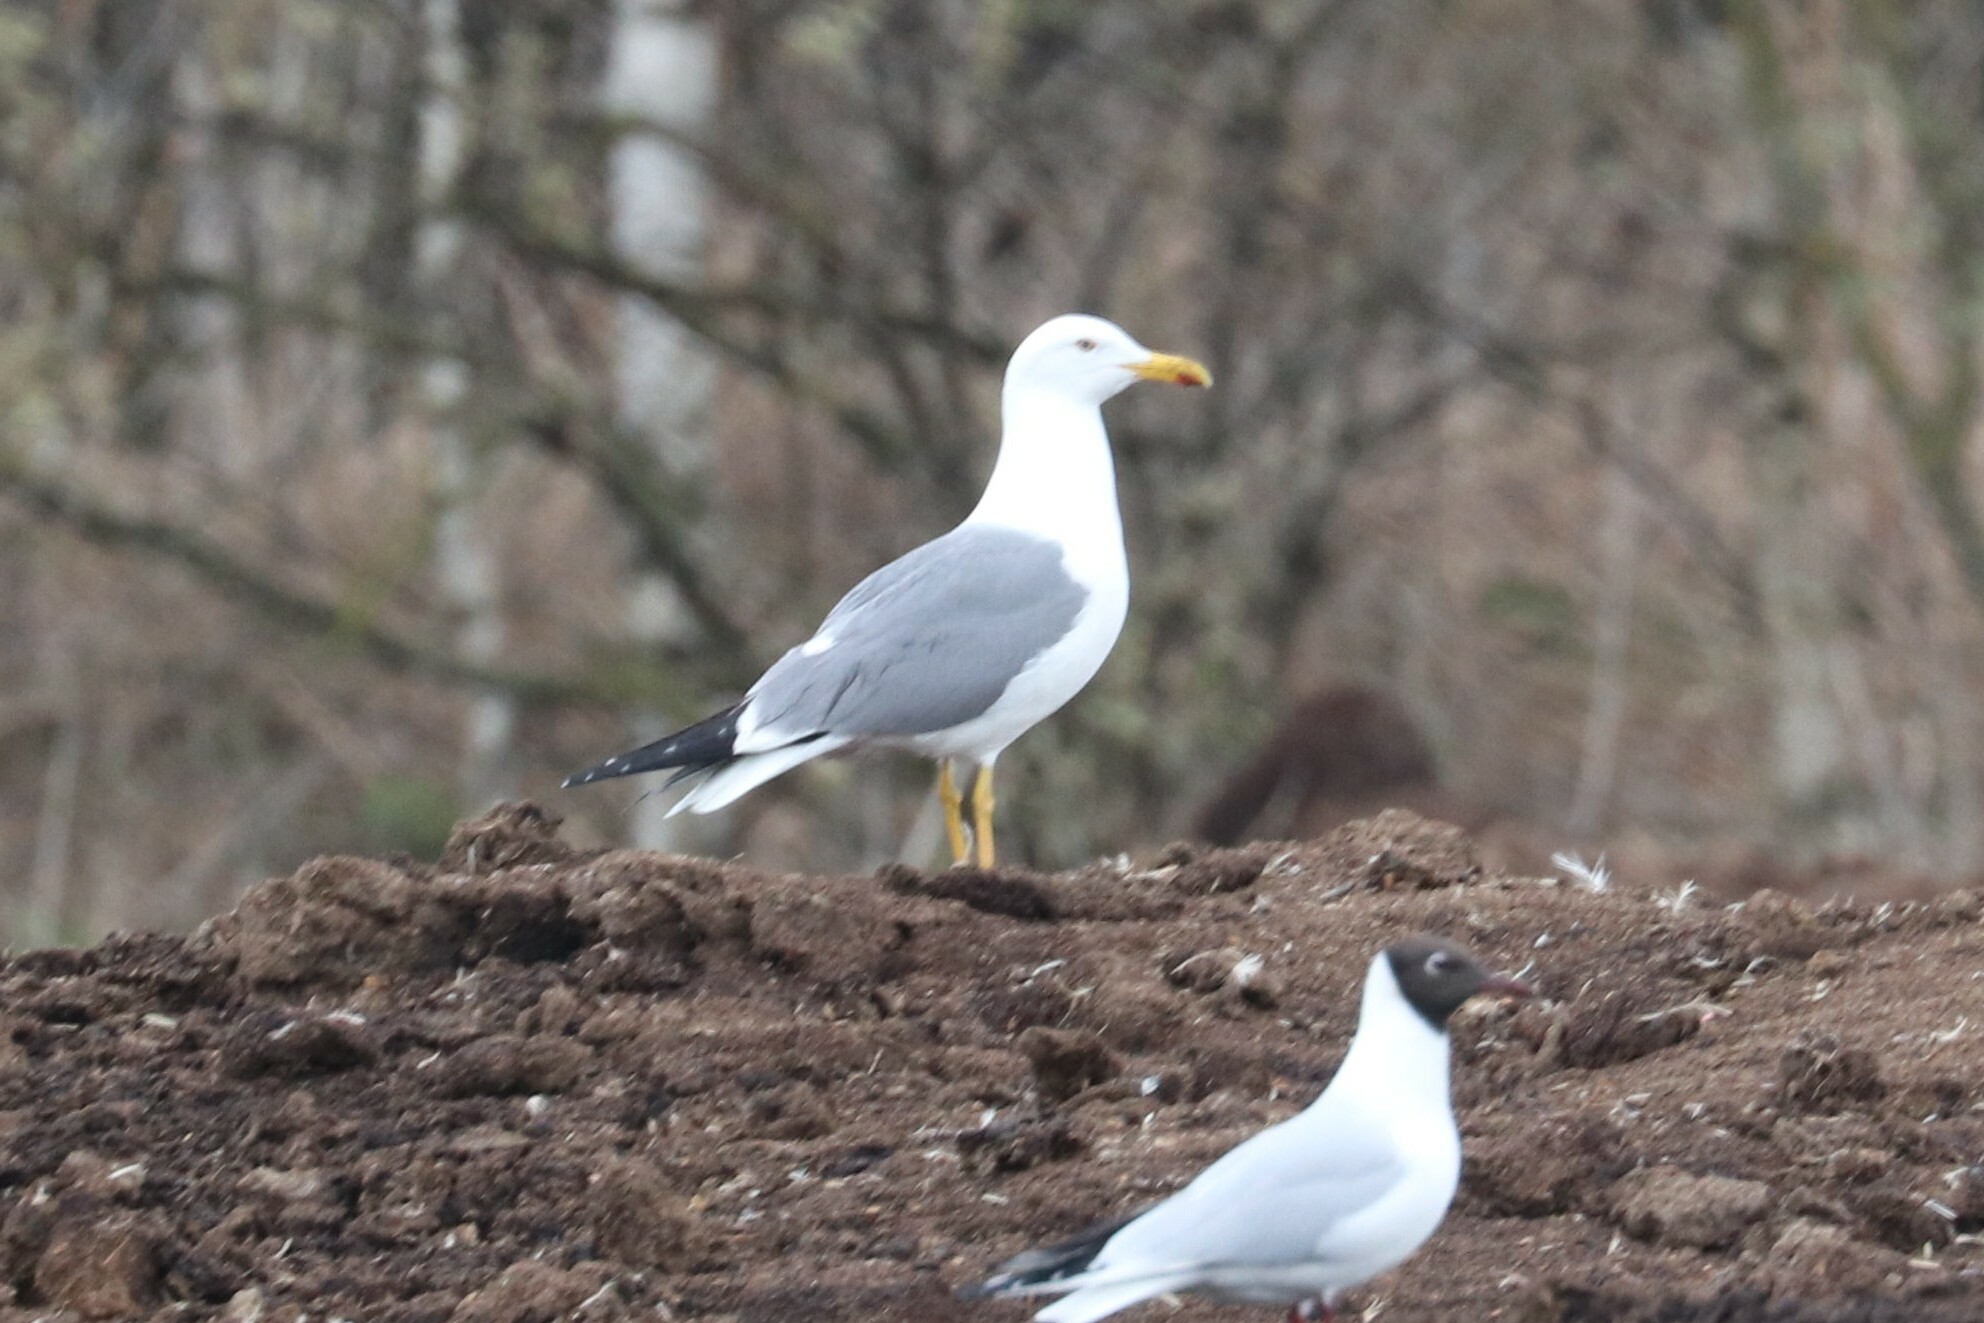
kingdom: Animalia
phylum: Chordata
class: Aves
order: Charadriiformes
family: Laridae
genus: Larus
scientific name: Larus cachinnans
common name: Caspian gull
